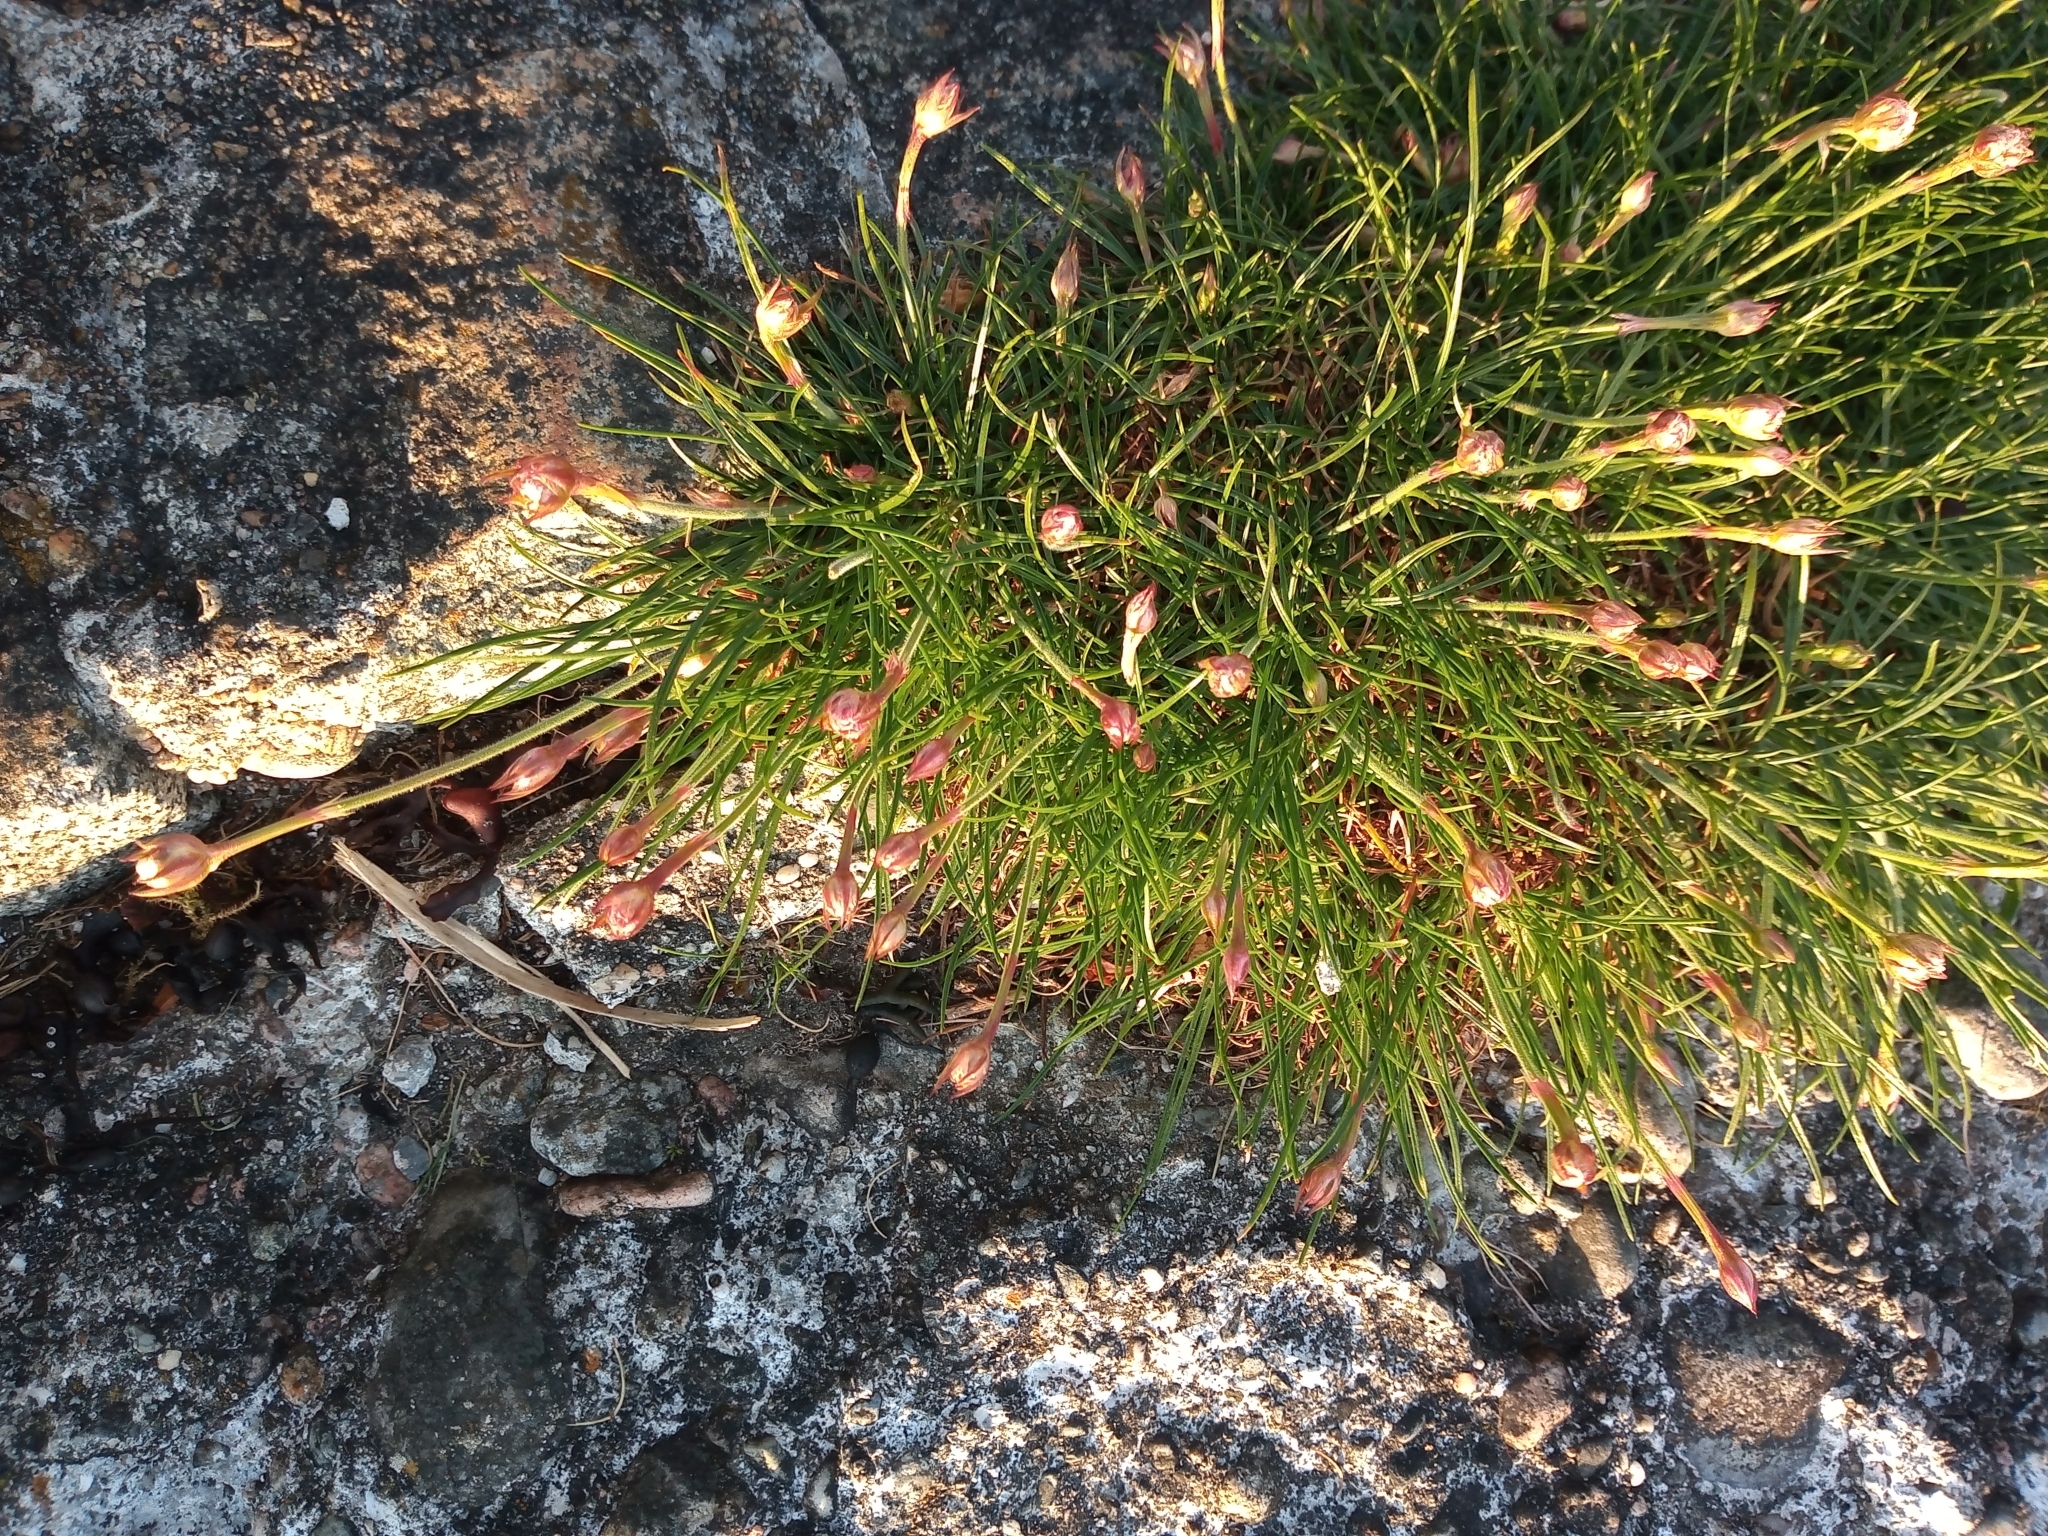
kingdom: Plantae
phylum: Tracheophyta
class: Magnoliopsida
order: Caryophyllales
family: Plumbaginaceae
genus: Armeria
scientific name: Armeria maritima
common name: Thrift
